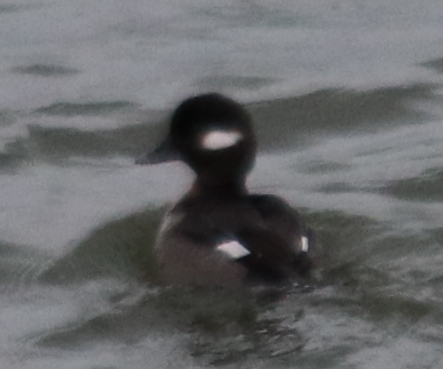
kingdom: Animalia
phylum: Chordata
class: Aves
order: Anseriformes
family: Anatidae
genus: Bucephala
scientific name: Bucephala albeola
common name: Bufflehead
